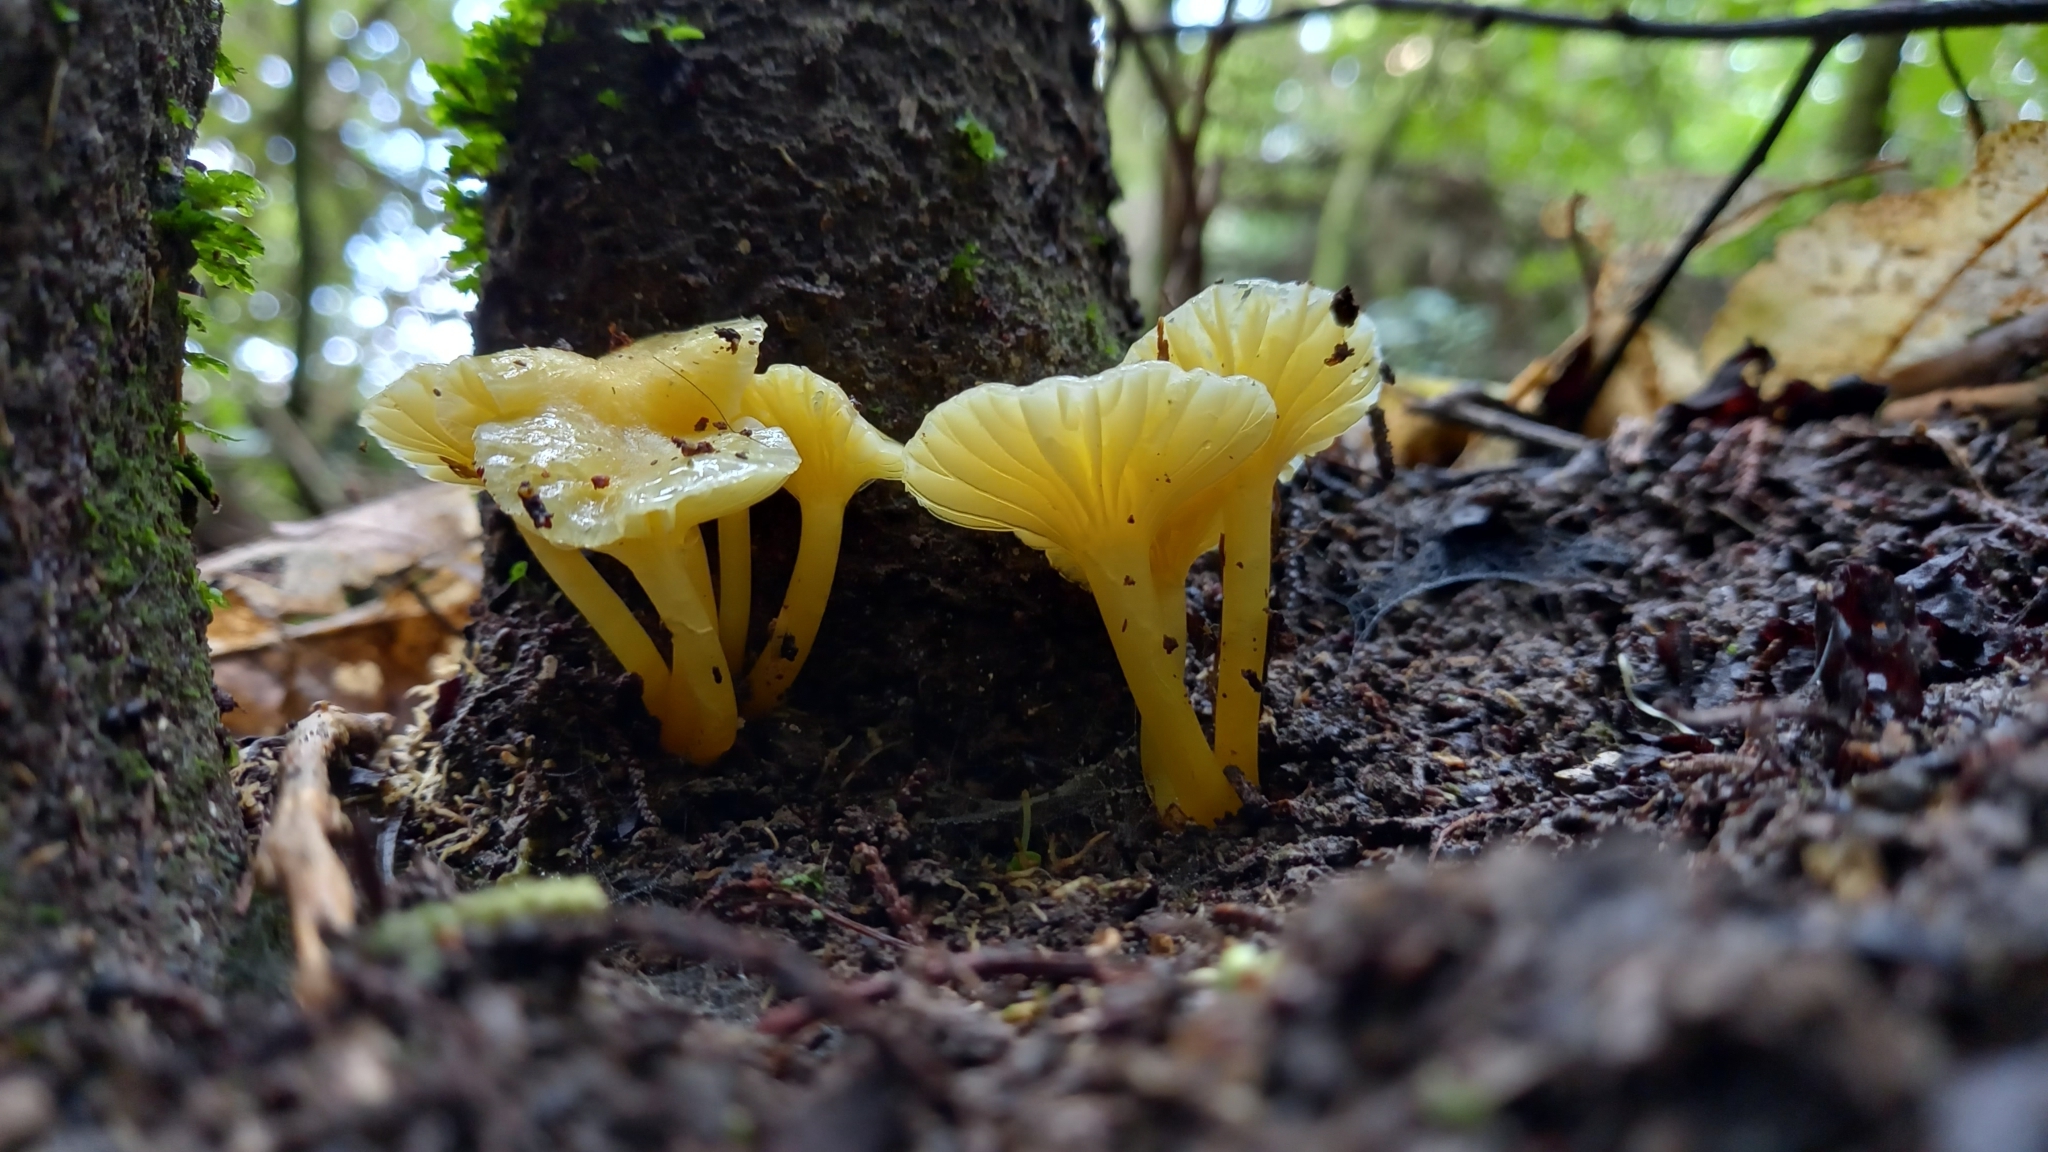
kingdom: Fungi
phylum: Basidiomycota
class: Agaricomycetes
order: Agaricales
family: Hygrophoraceae
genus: Gloioxanthomyces
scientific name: Gloioxanthomyces
